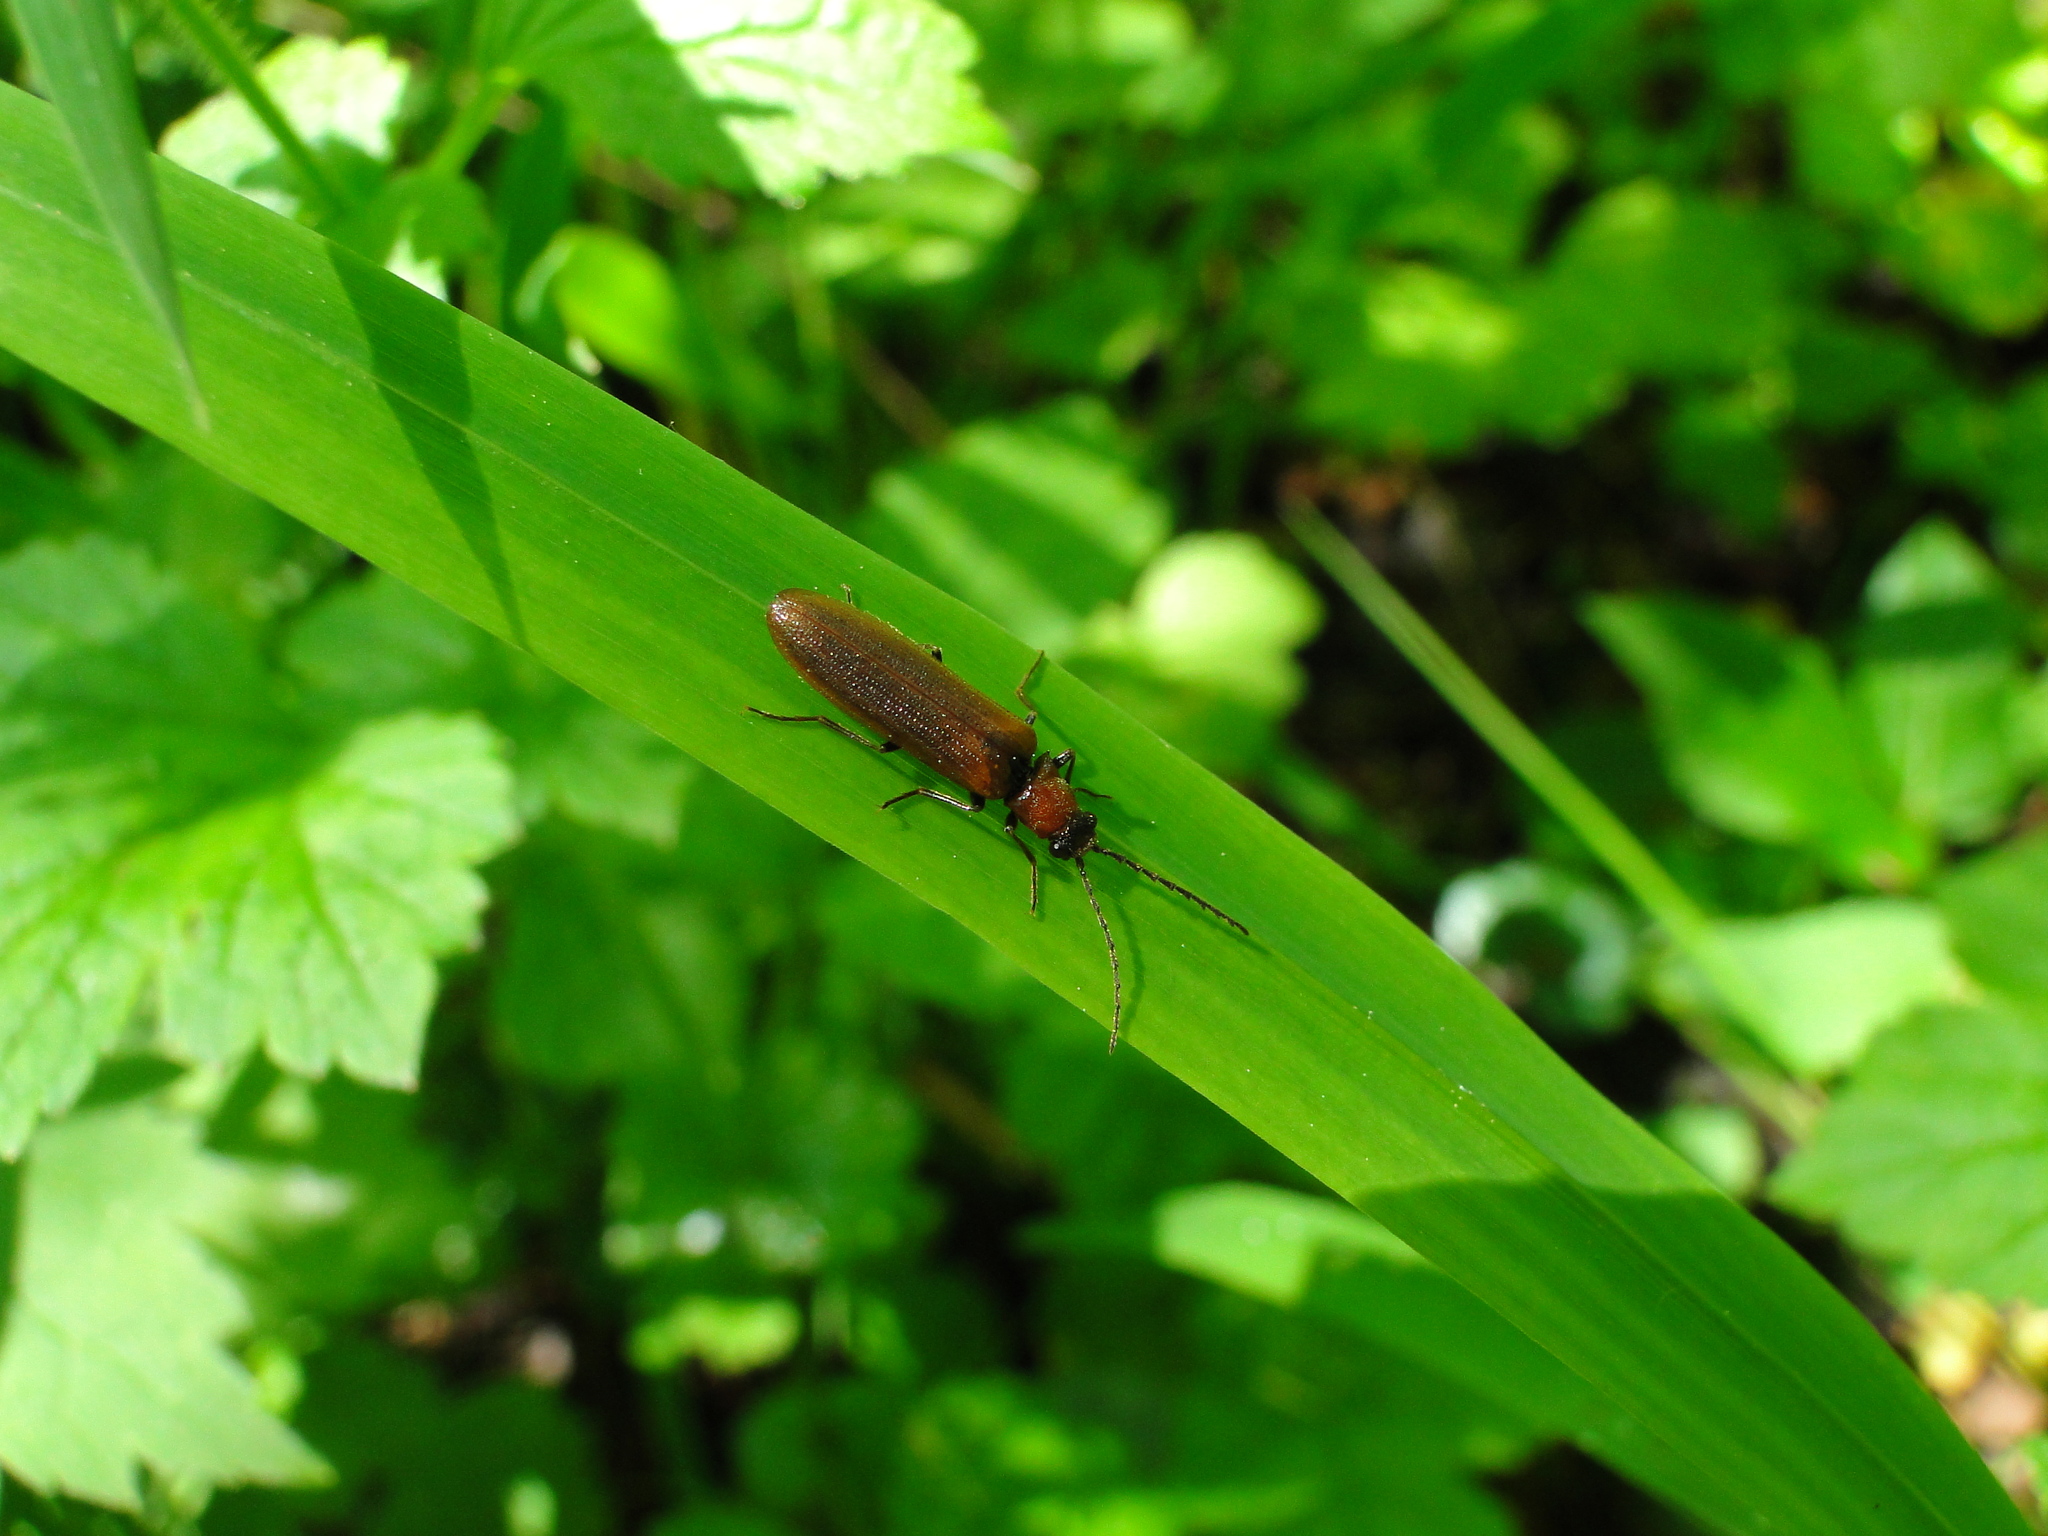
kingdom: Animalia
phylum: Arthropoda
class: Insecta
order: Coleoptera
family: Elateridae
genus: Denticollis
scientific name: Denticollis linearis
